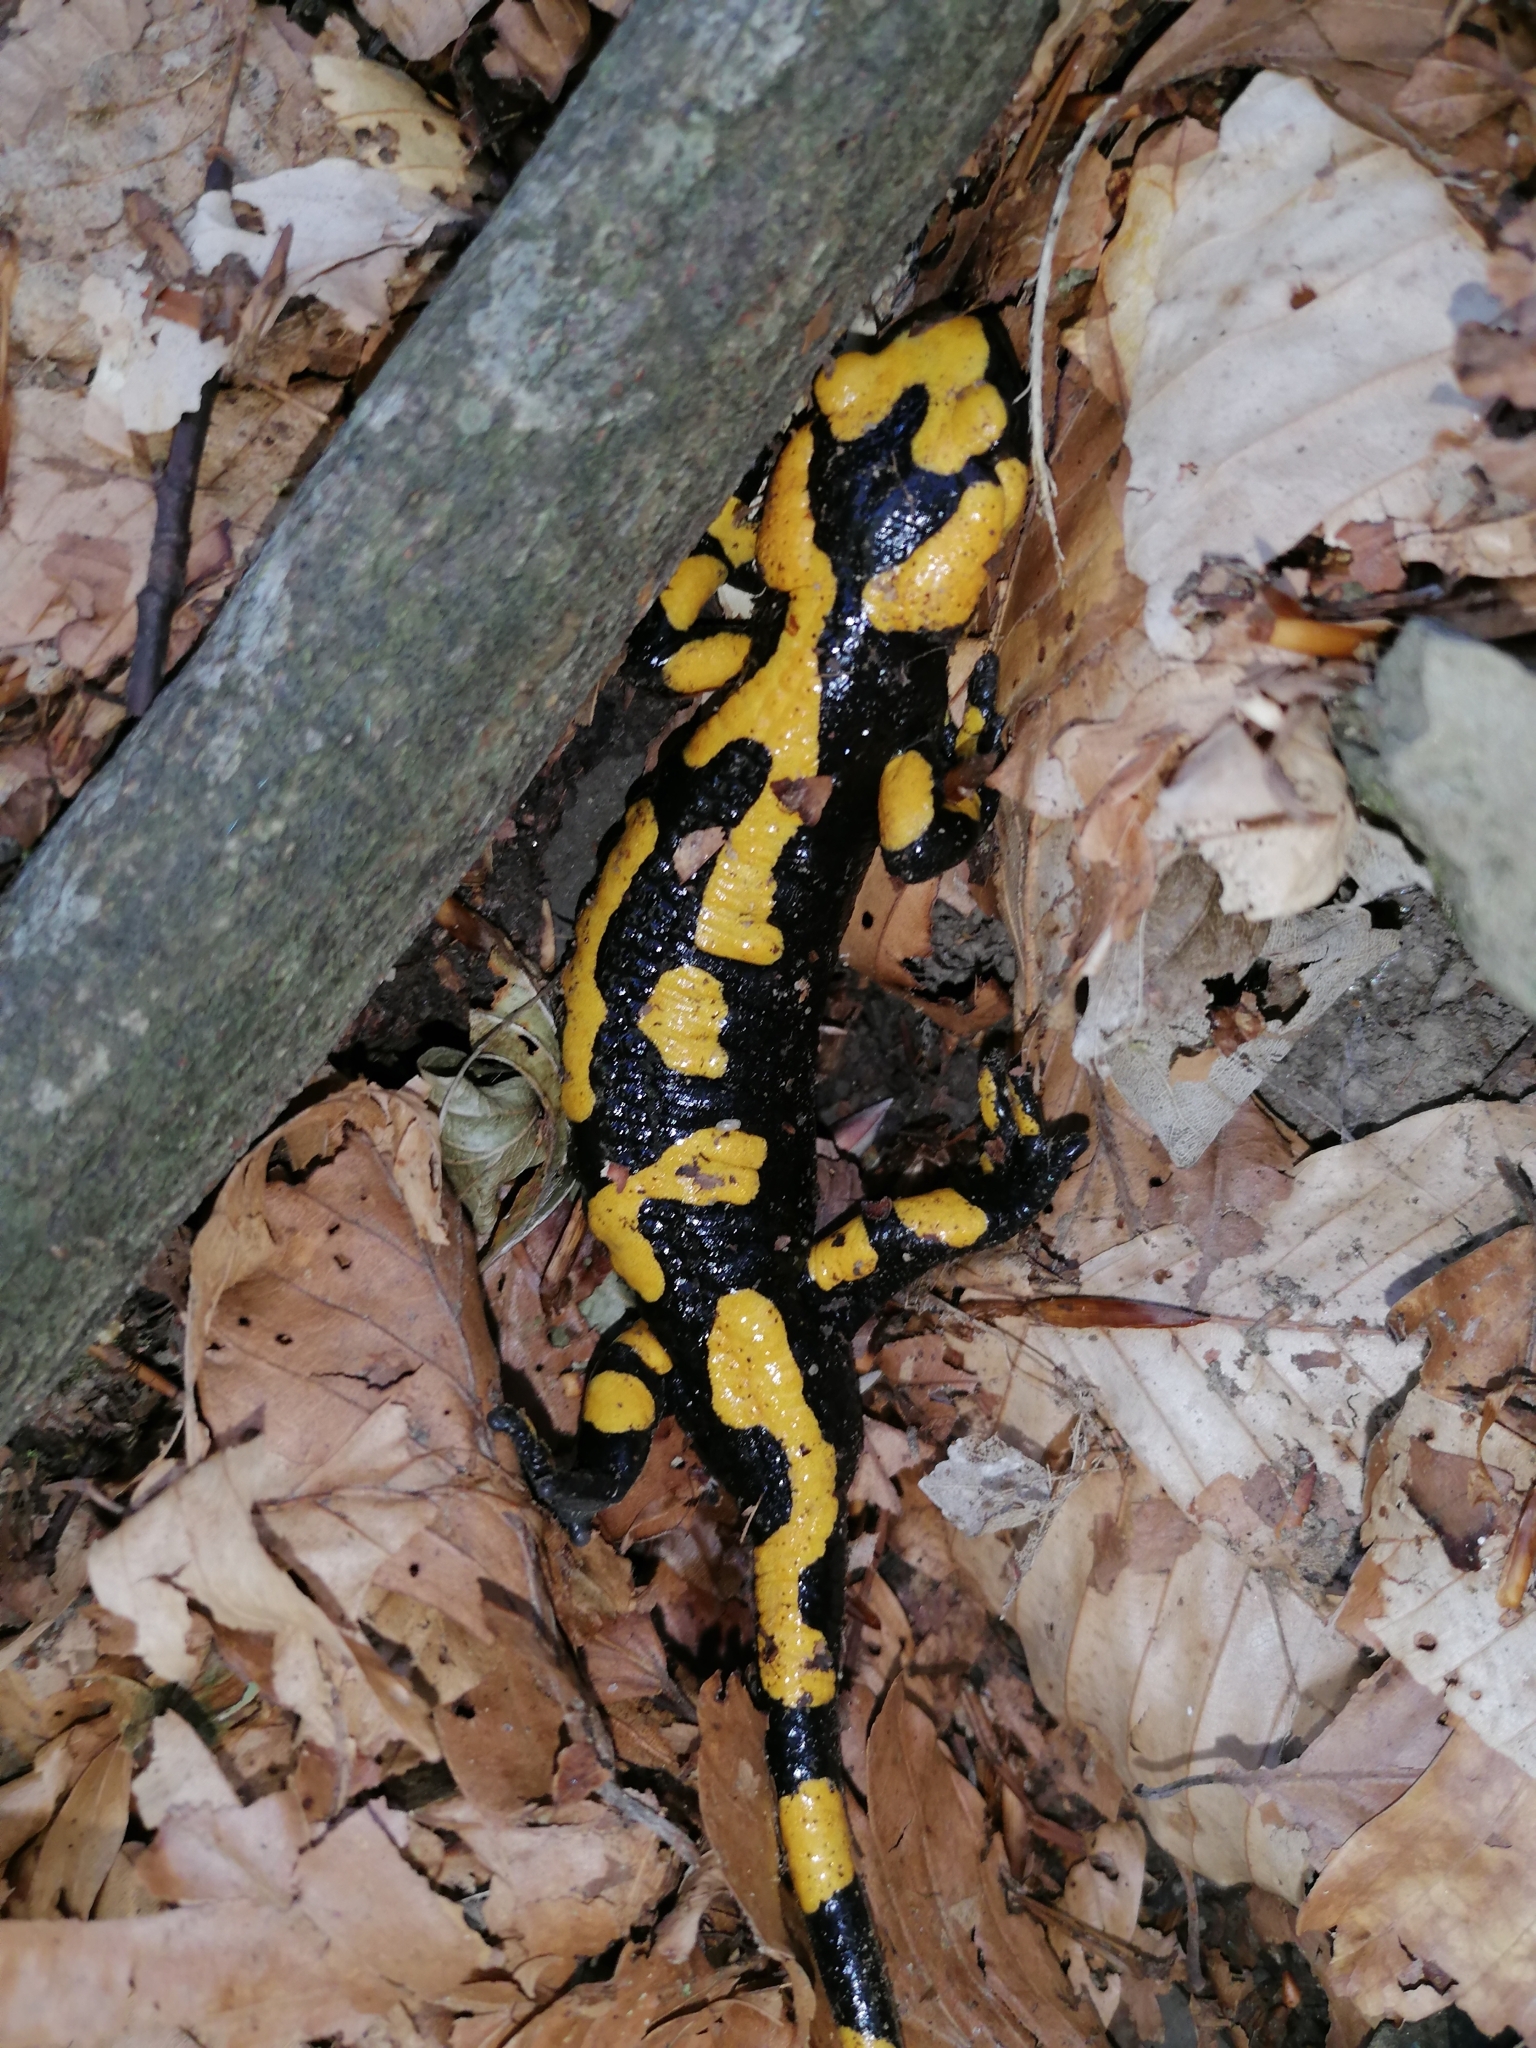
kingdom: Animalia
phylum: Chordata
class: Amphibia
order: Caudata
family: Salamandridae
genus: Salamandra
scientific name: Salamandra salamandra
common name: Fire salamander
